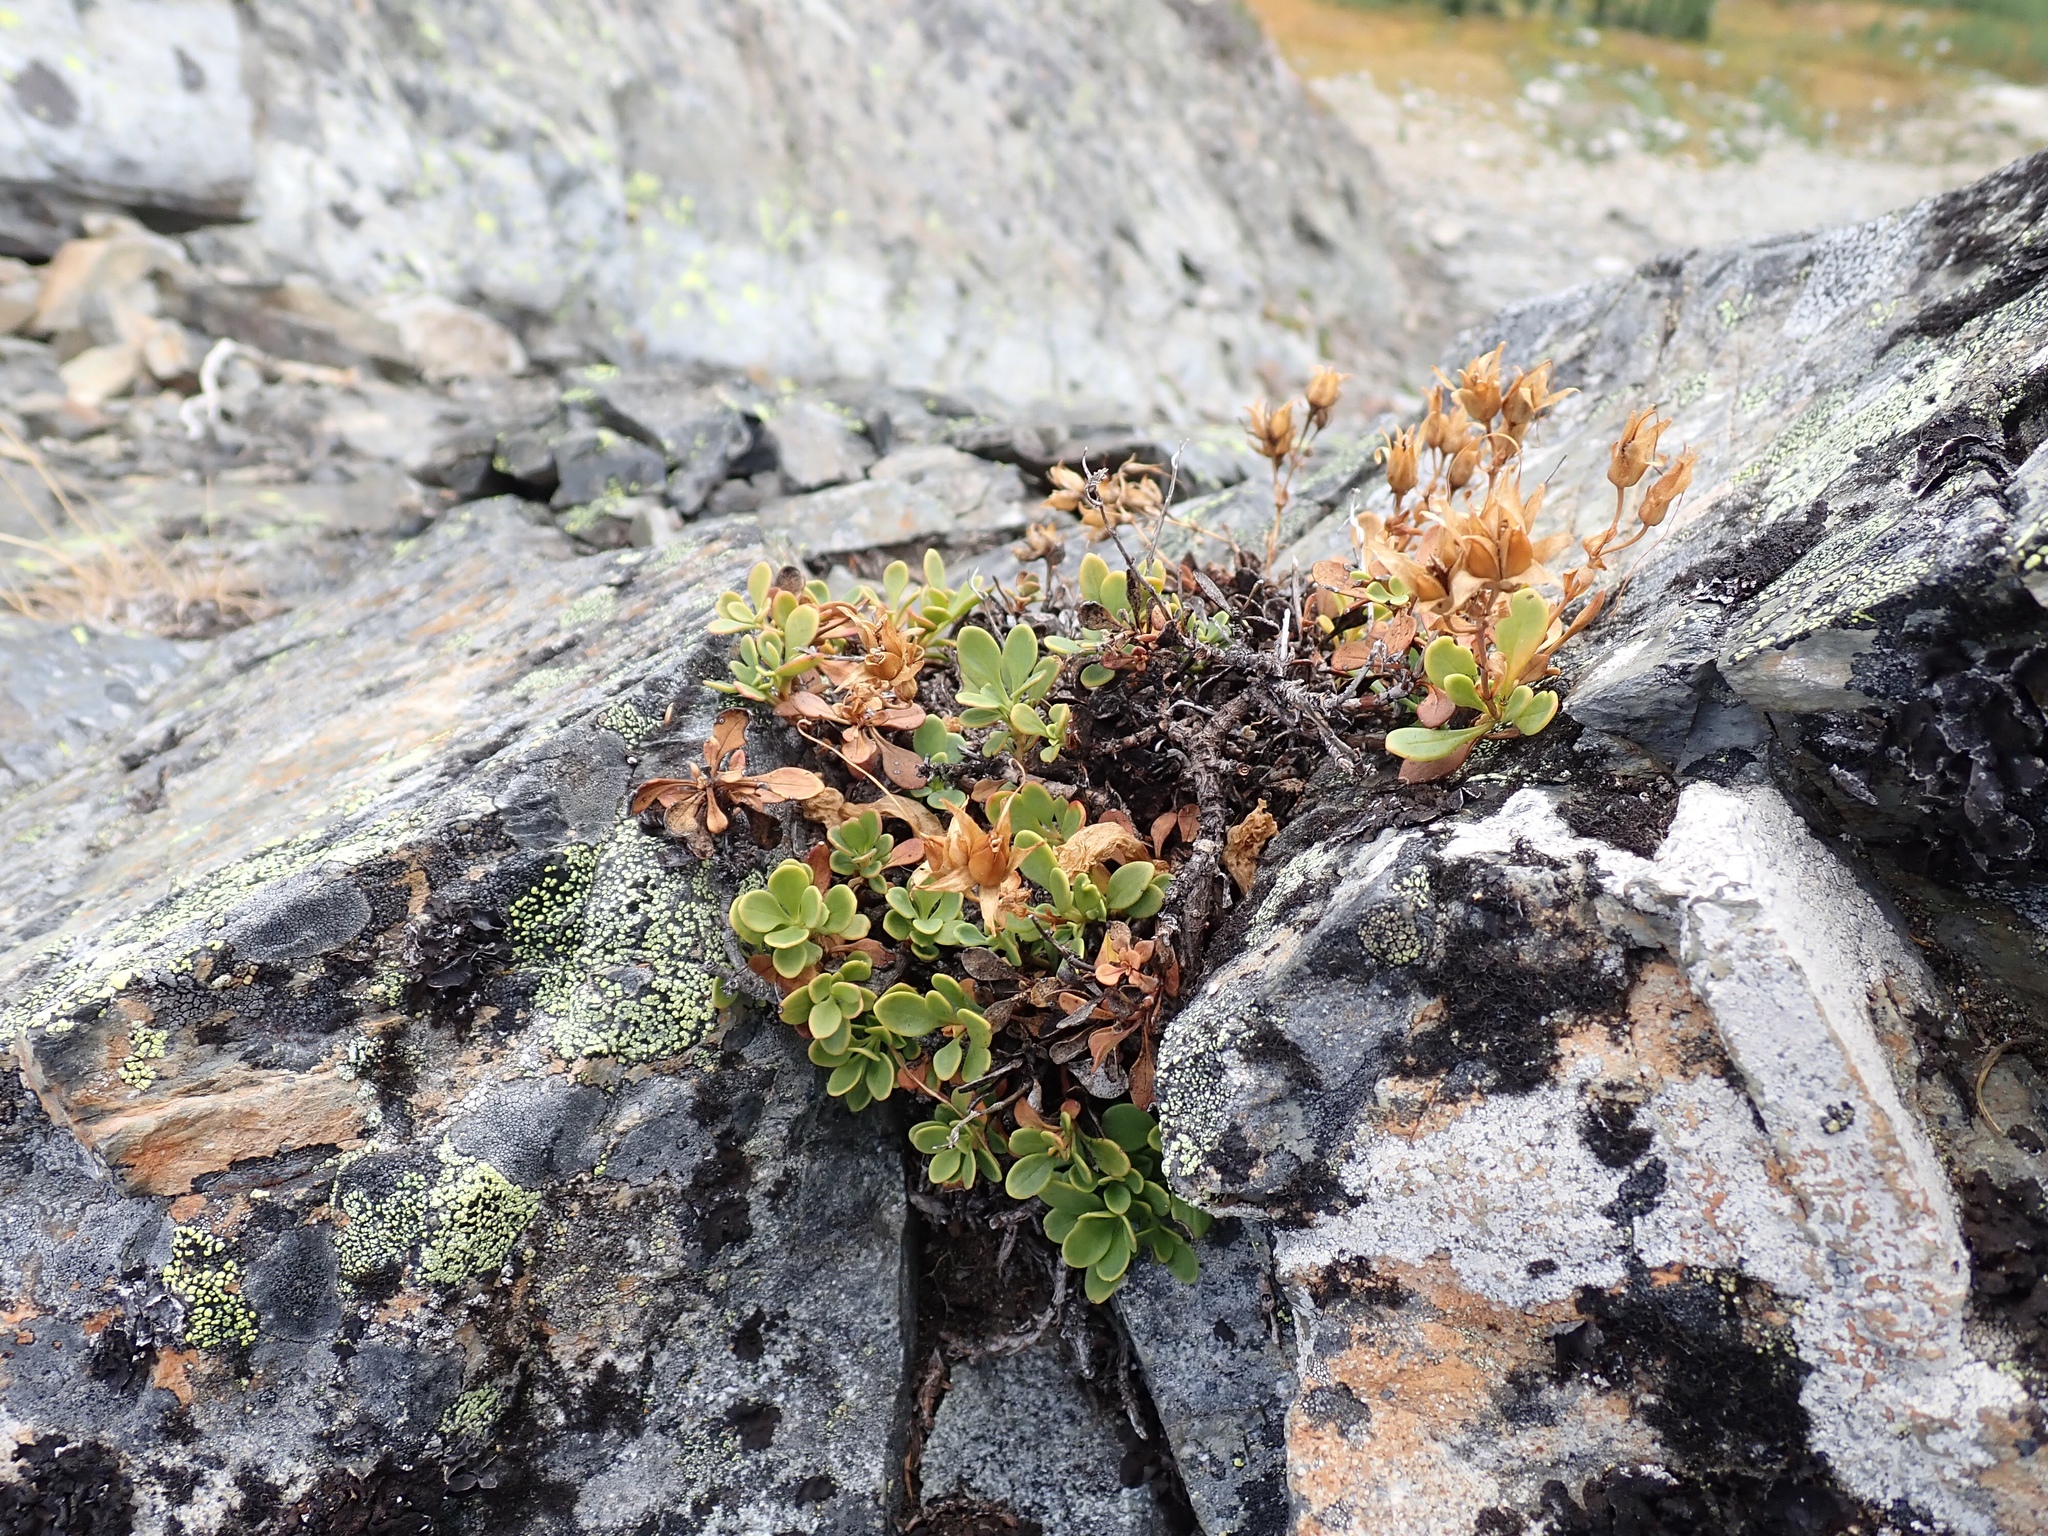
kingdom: Plantae
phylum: Tracheophyta
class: Magnoliopsida
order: Lamiales
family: Plantaginaceae
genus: Penstemon
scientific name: Penstemon davidsonii
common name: Davidson's penstemon
